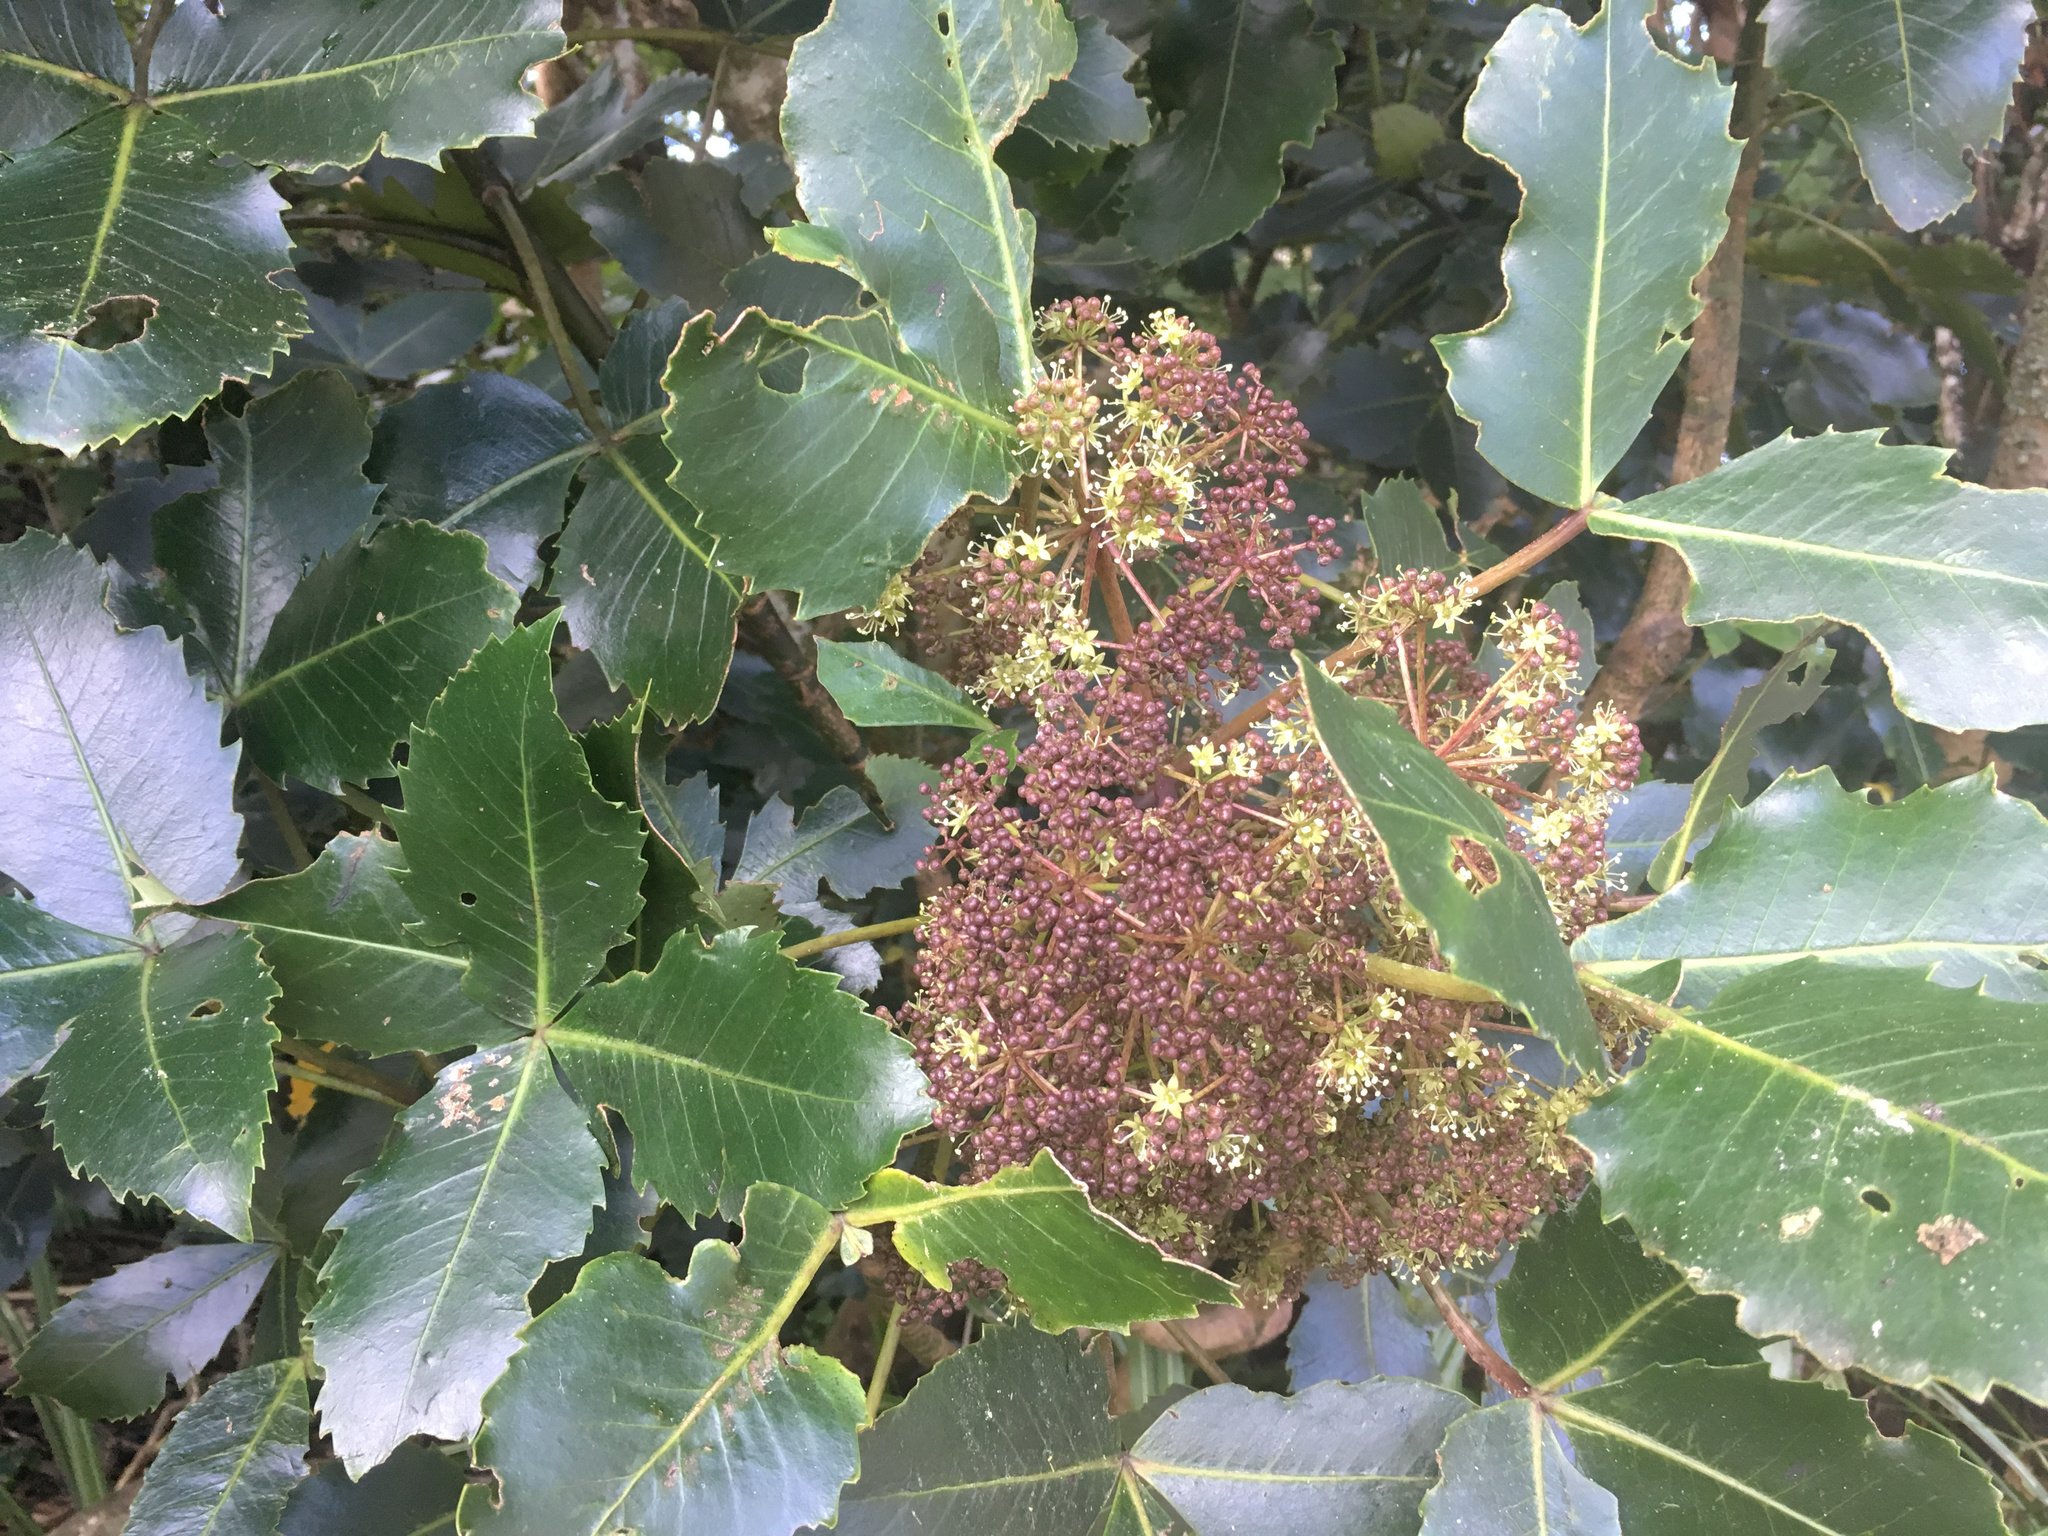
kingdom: Plantae
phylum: Tracheophyta
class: Magnoliopsida
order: Apiales
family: Araliaceae
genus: Neopanax
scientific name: Neopanax colensoi
